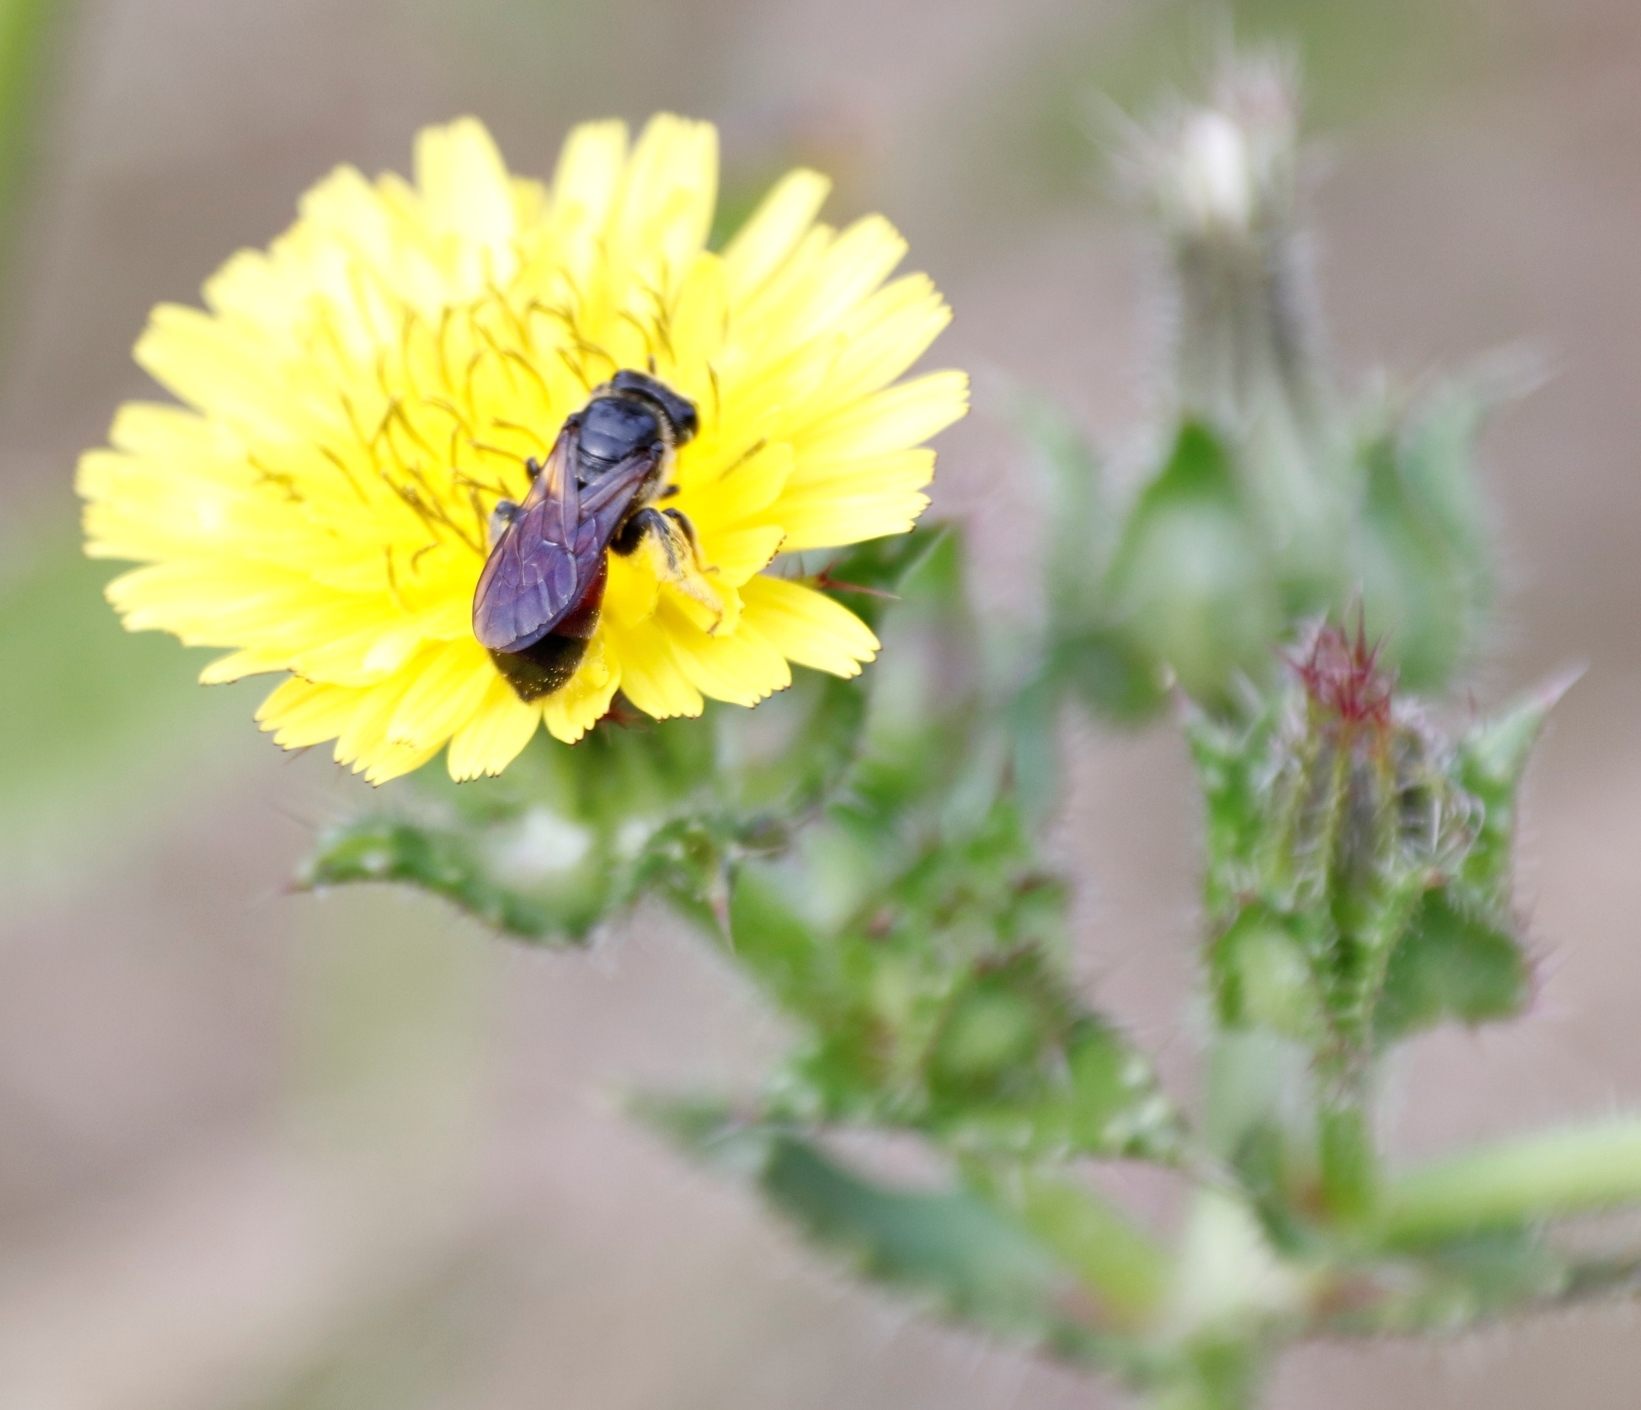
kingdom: Plantae
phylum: Tracheophyta
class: Magnoliopsida
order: Asterales
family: Asteraceae
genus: Helminthotheca
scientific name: Helminthotheca echioides
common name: Ox-tongue
